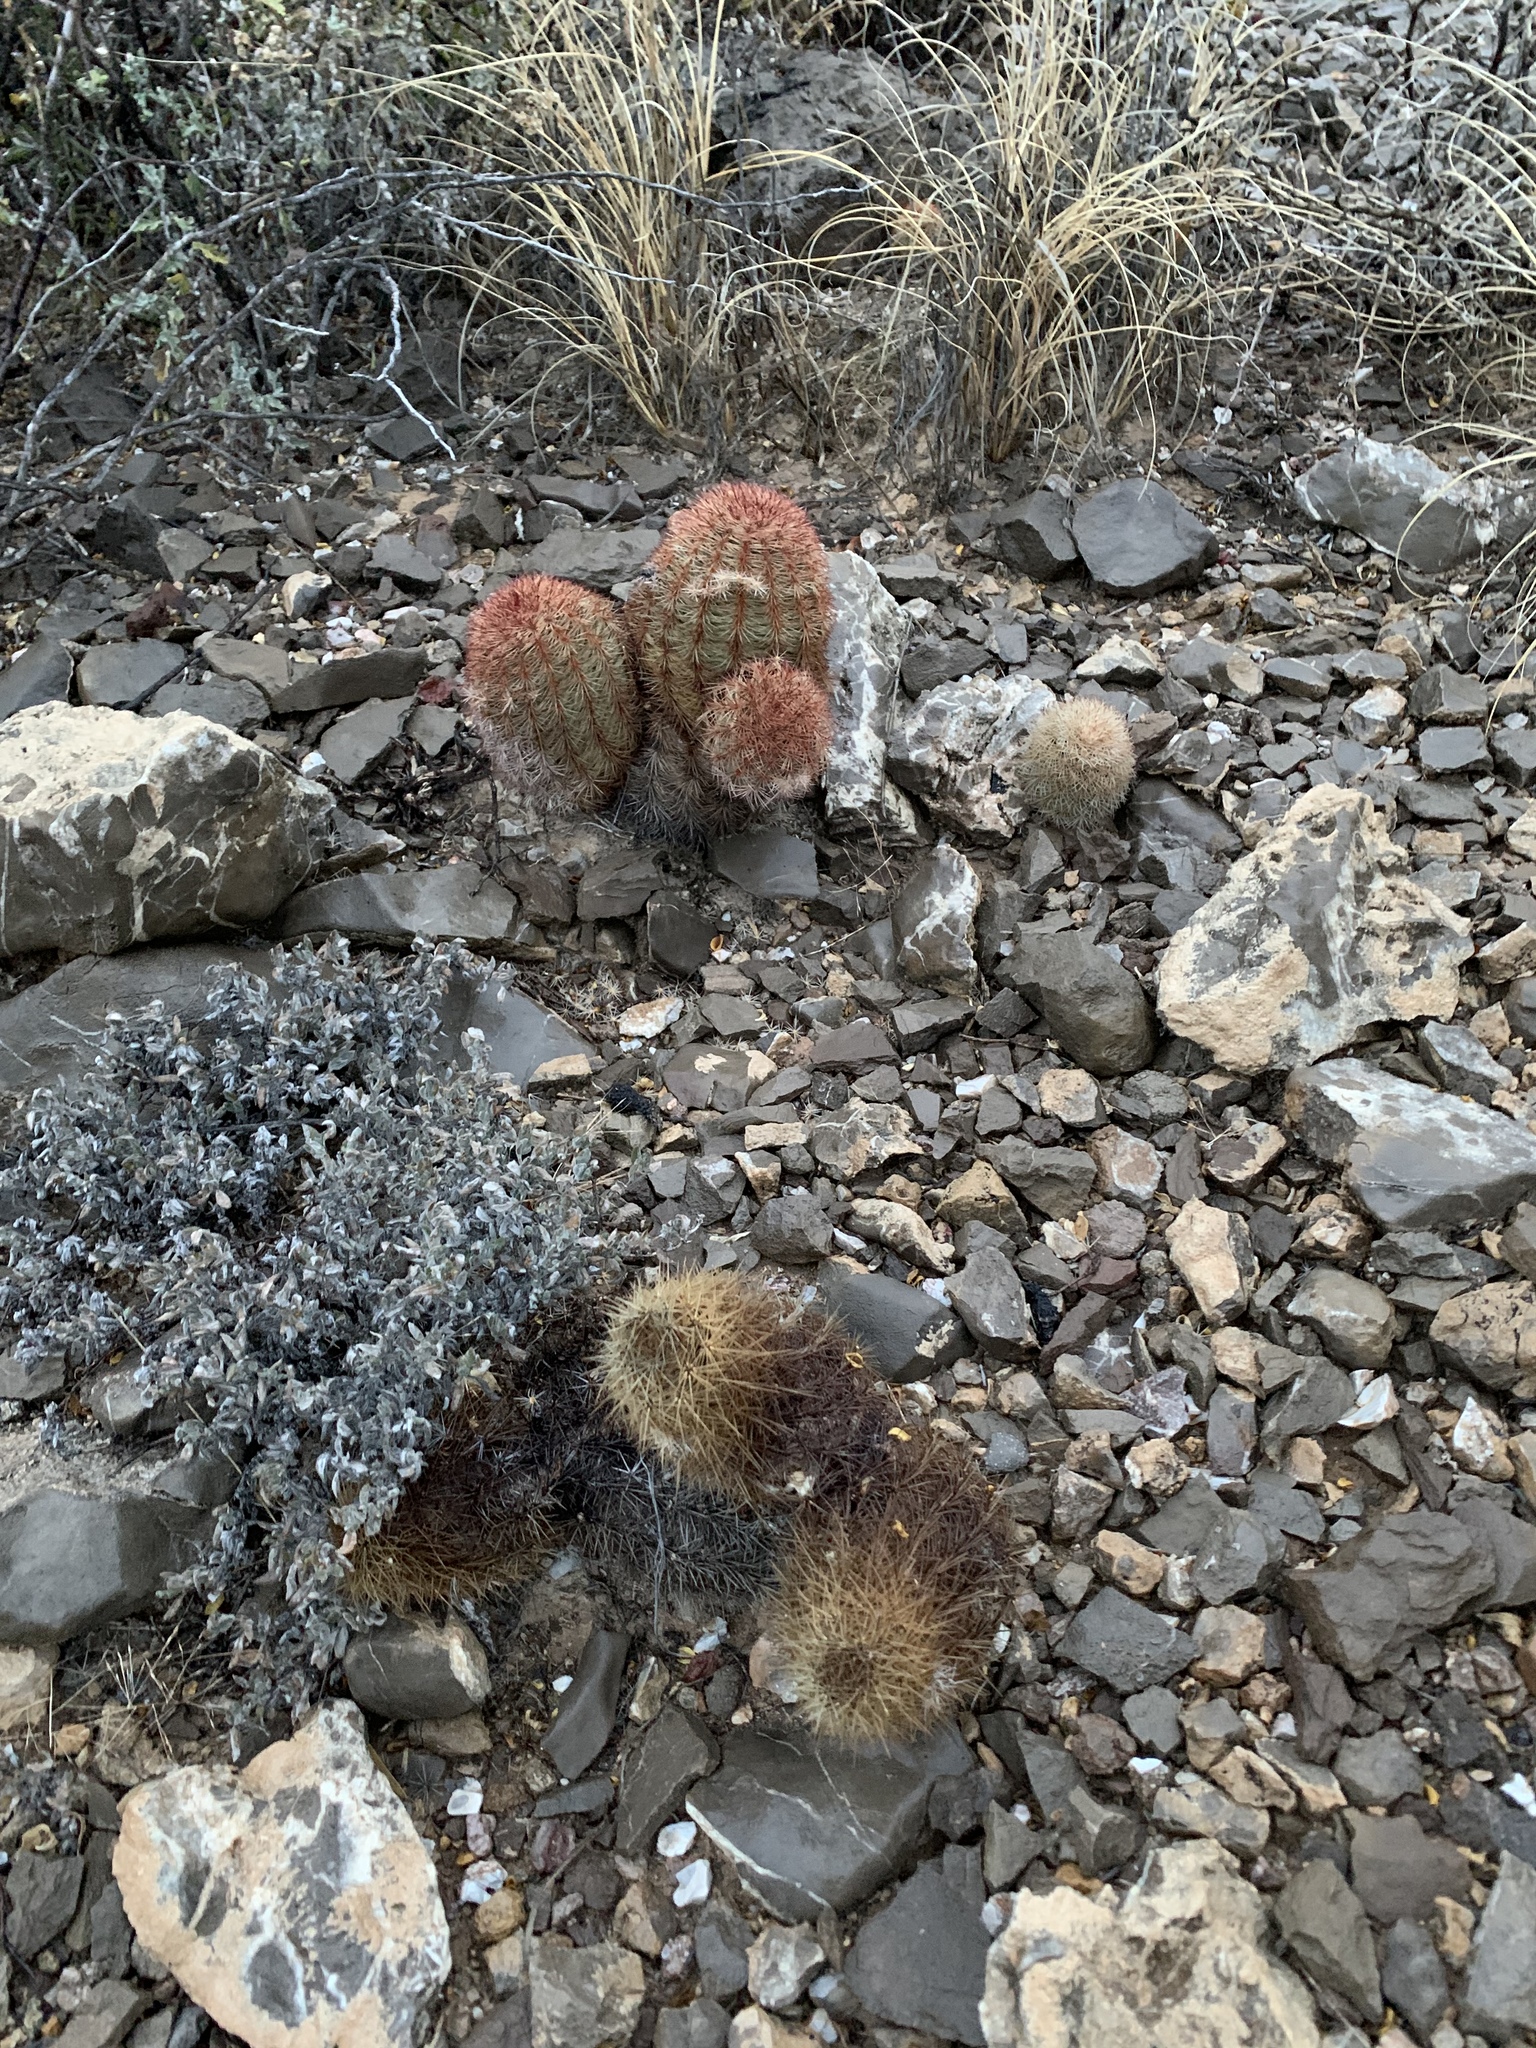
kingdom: Plantae
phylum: Tracheophyta
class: Magnoliopsida
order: Caryophyllales
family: Cactaceae
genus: Echinocereus
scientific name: Echinocereus dasyacanthus
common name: Spiny hedgehog cactus
